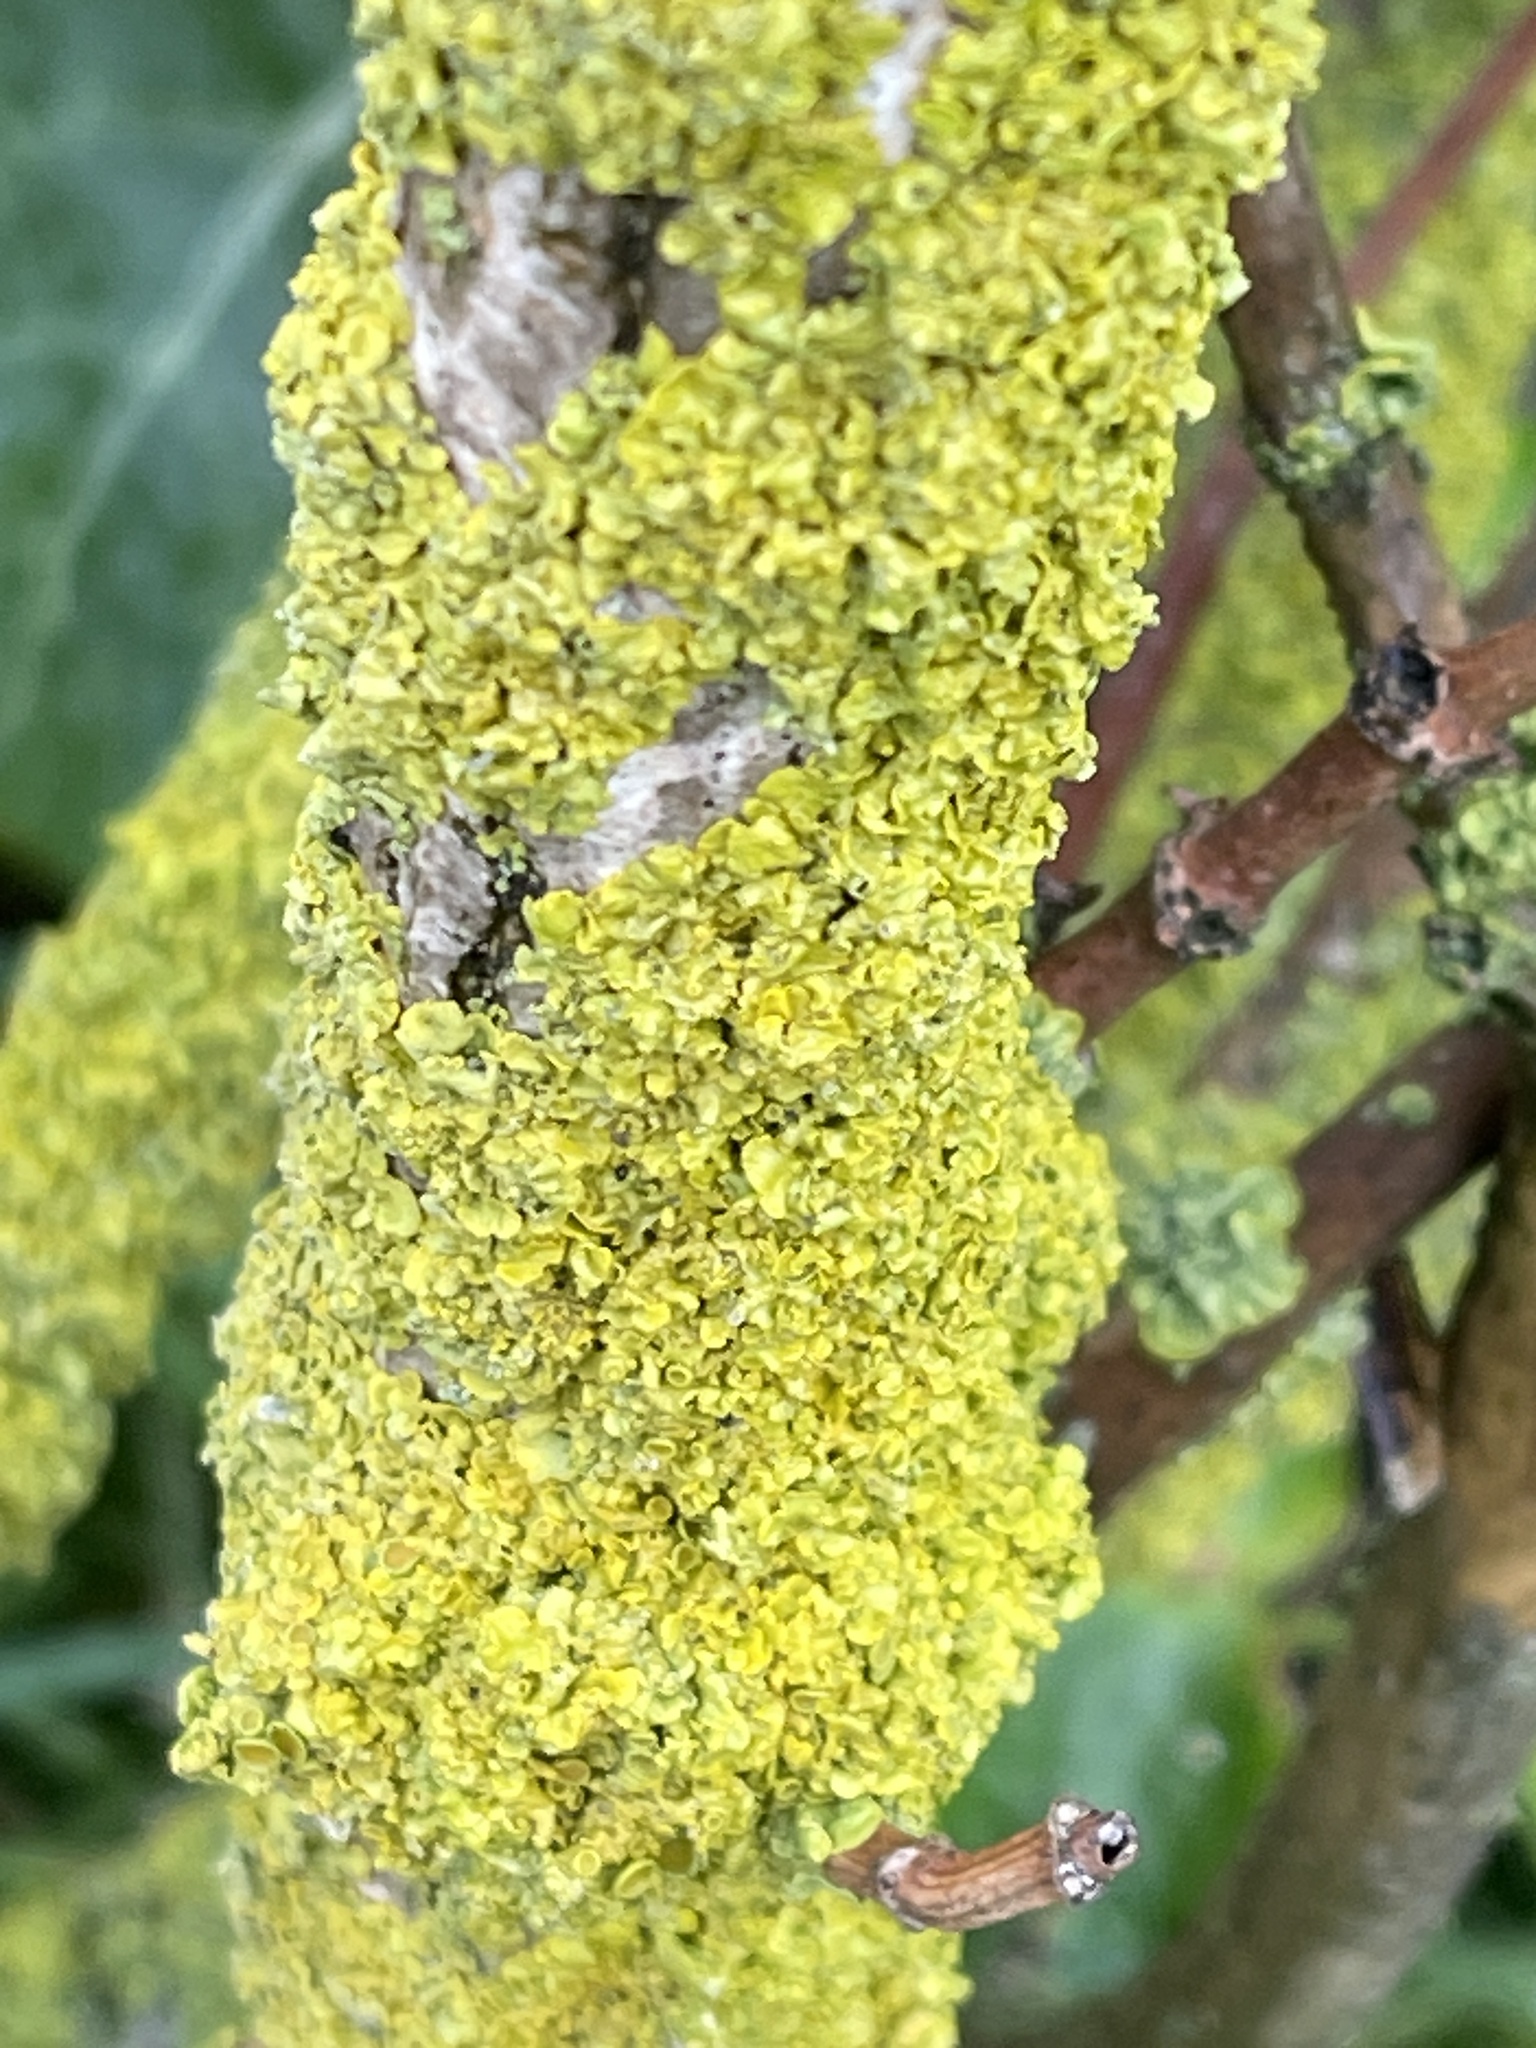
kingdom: Fungi
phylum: Ascomycota
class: Lecanoromycetes
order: Teloschistales
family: Teloschistaceae
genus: Xanthoria
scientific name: Xanthoria parietina
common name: Common orange lichen
